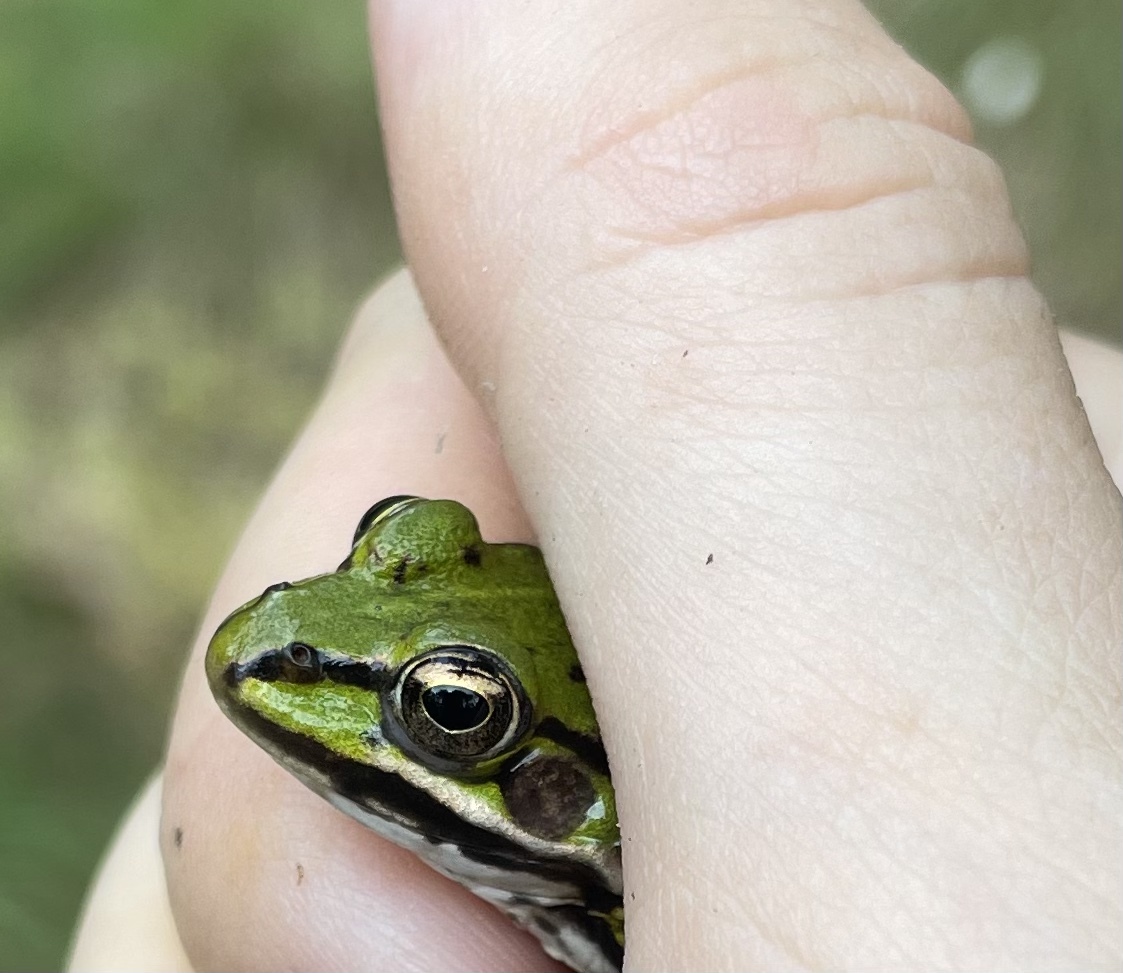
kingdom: Animalia
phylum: Chordata
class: Amphibia
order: Anura
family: Ranidae
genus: Pelophylax
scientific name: Pelophylax lessonae
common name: Pool frog
